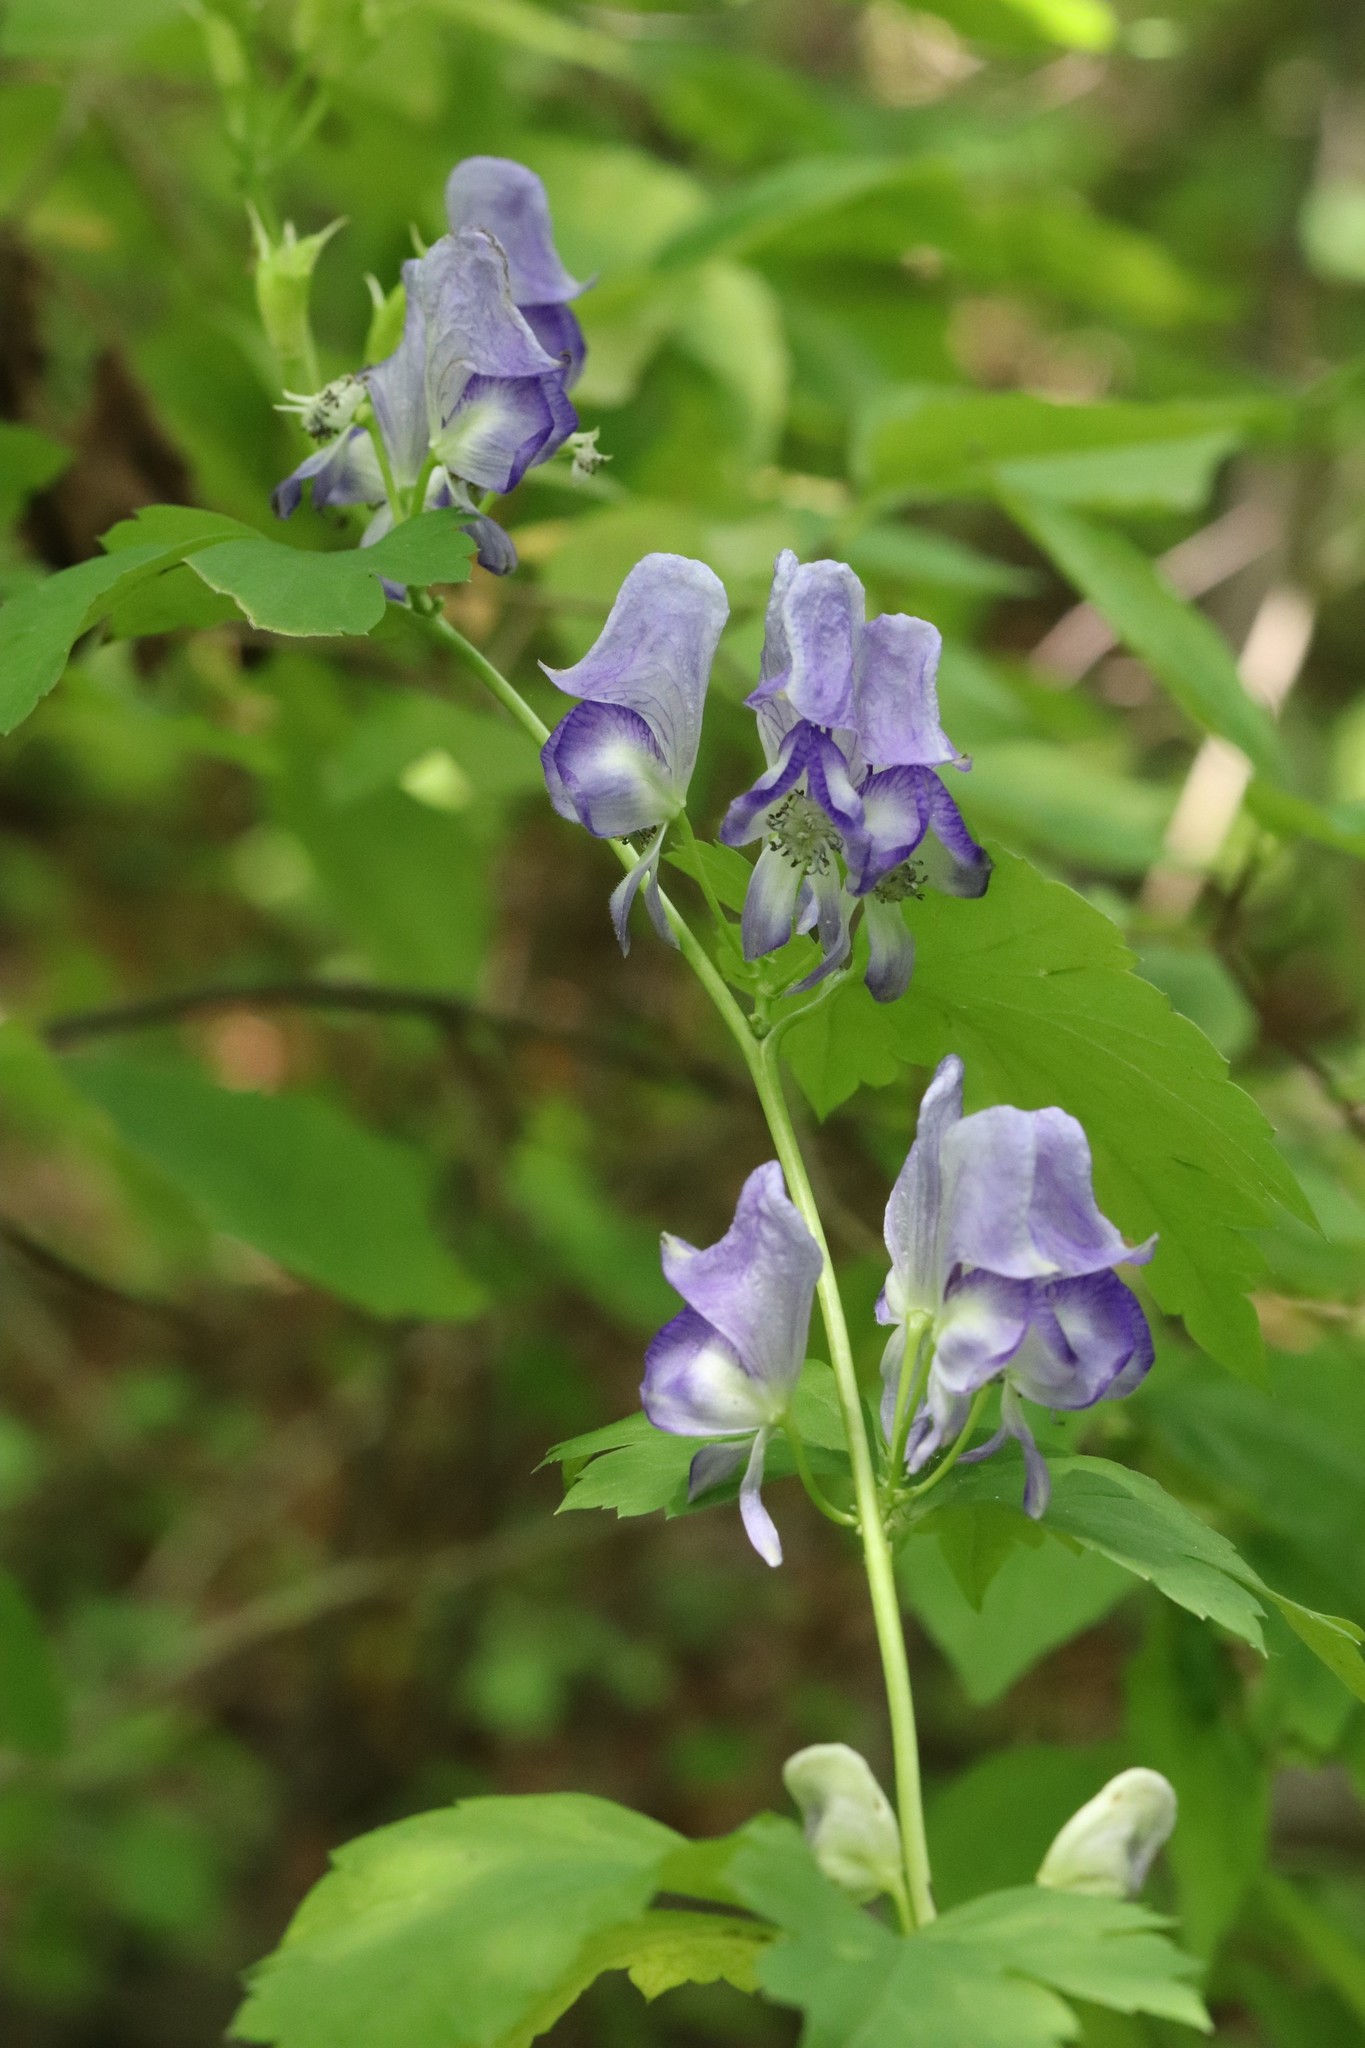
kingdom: Plantae
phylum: Tracheophyta
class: Magnoliopsida
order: Ranunculales
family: Ranunculaceae
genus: Aconitum
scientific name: Aconitum sczukinii
